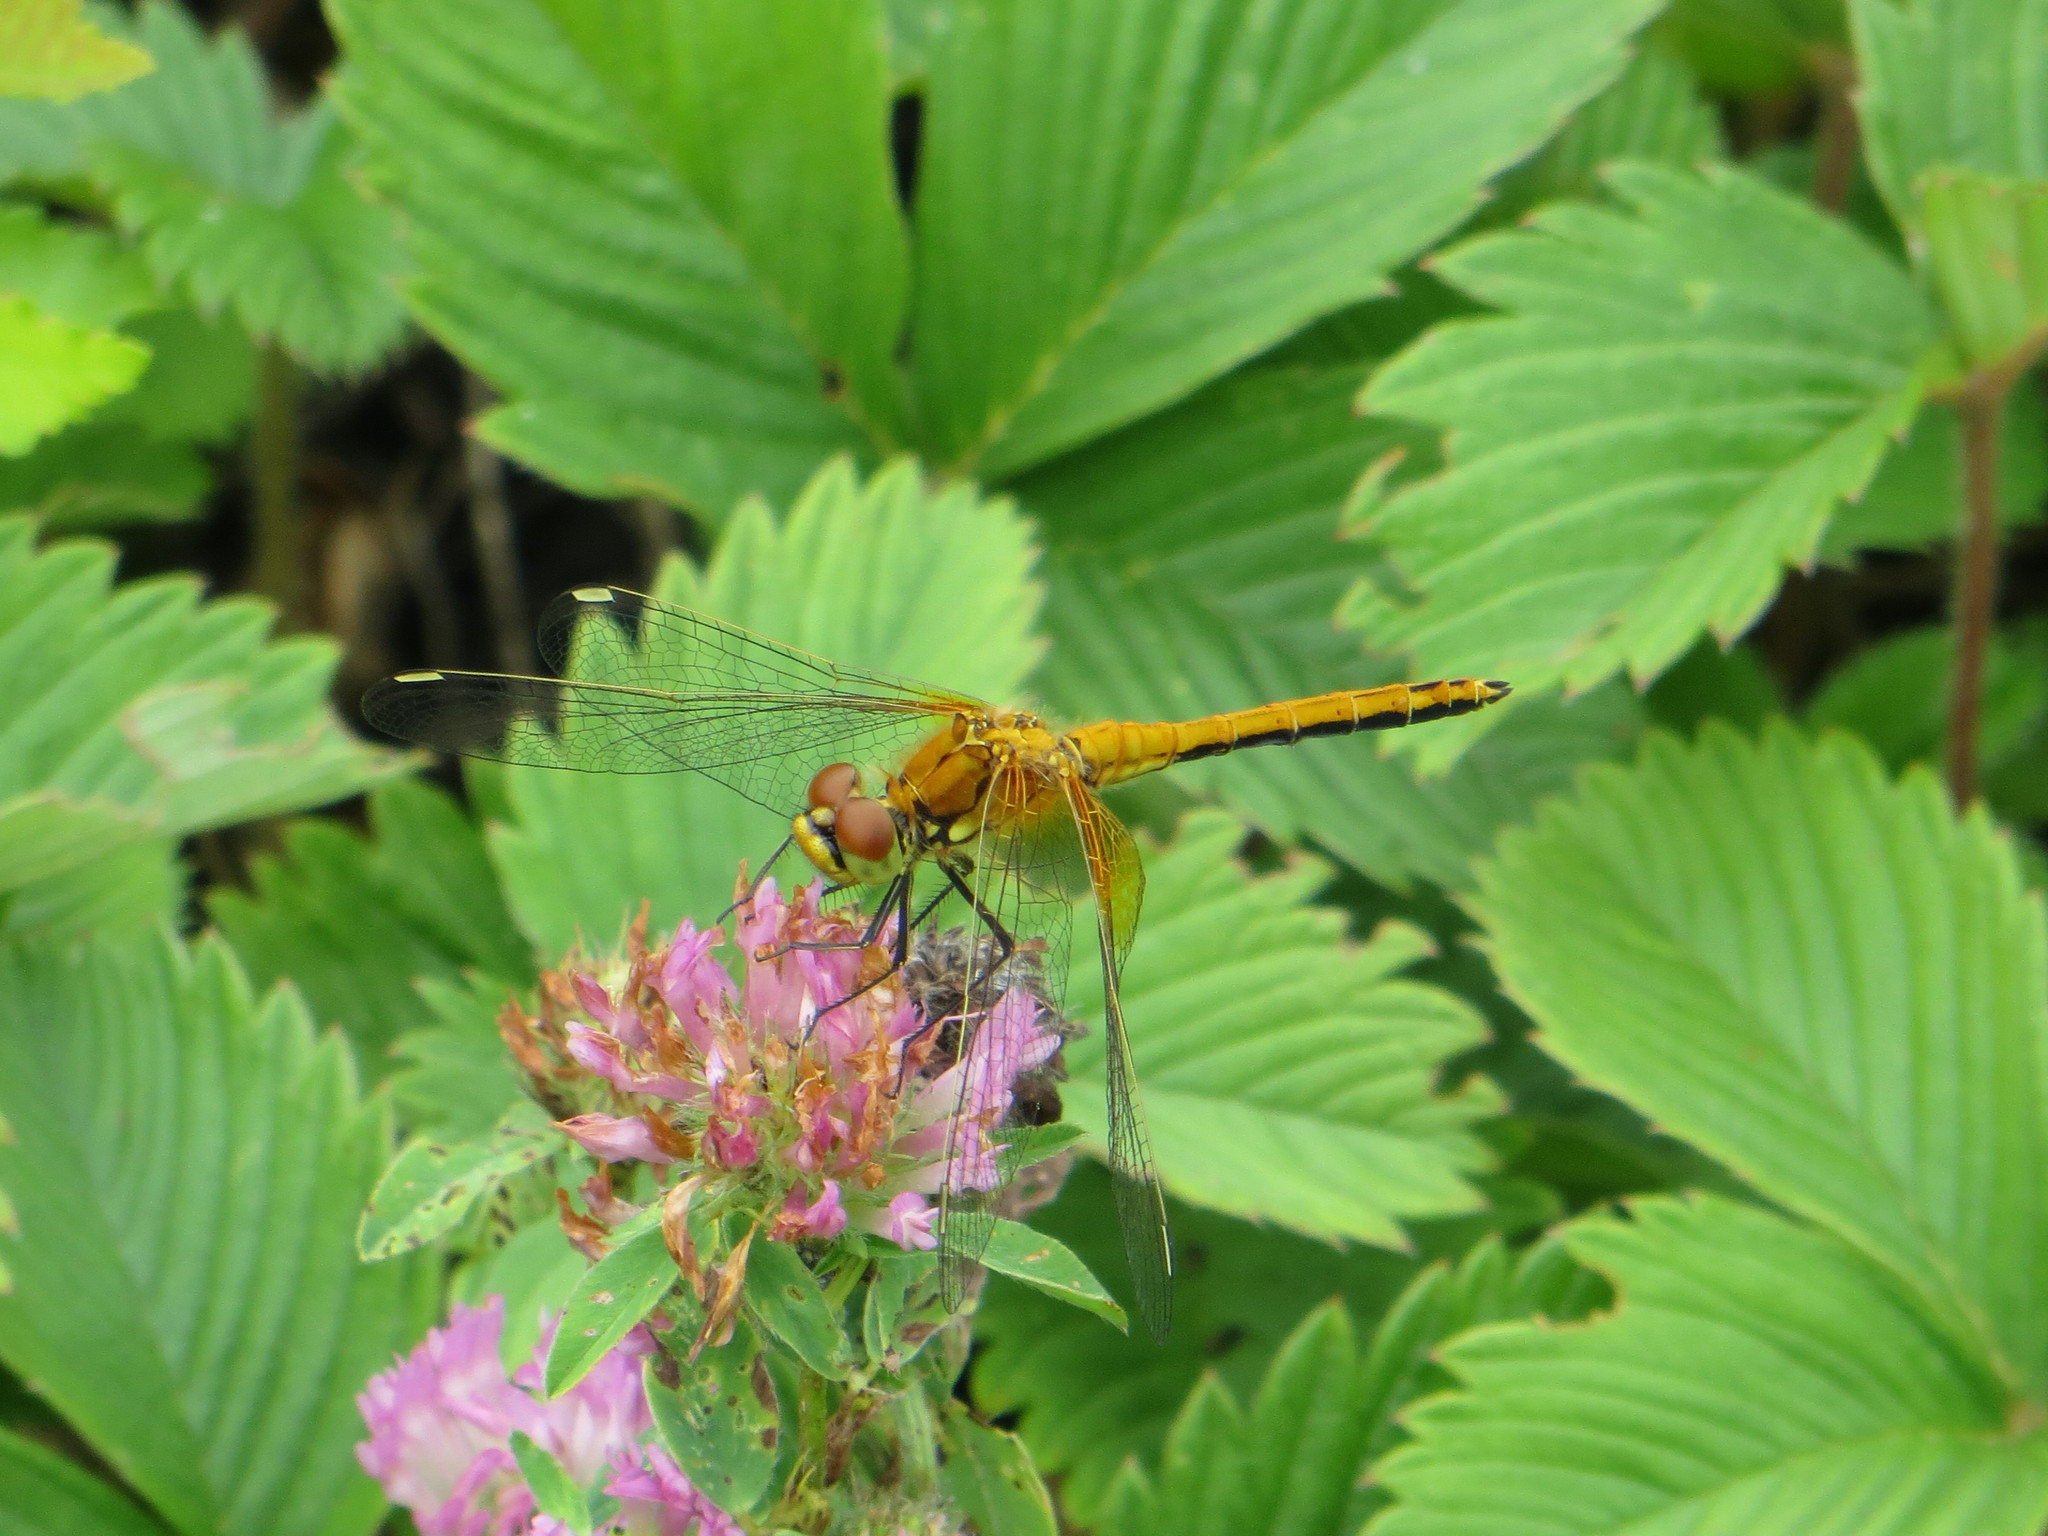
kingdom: Animalia
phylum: Arthropoda
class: Insecta
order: Odonata
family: Libellulidae
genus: Sympetrum
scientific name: Sympetrum flaveolum
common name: Yellow-winged darter
